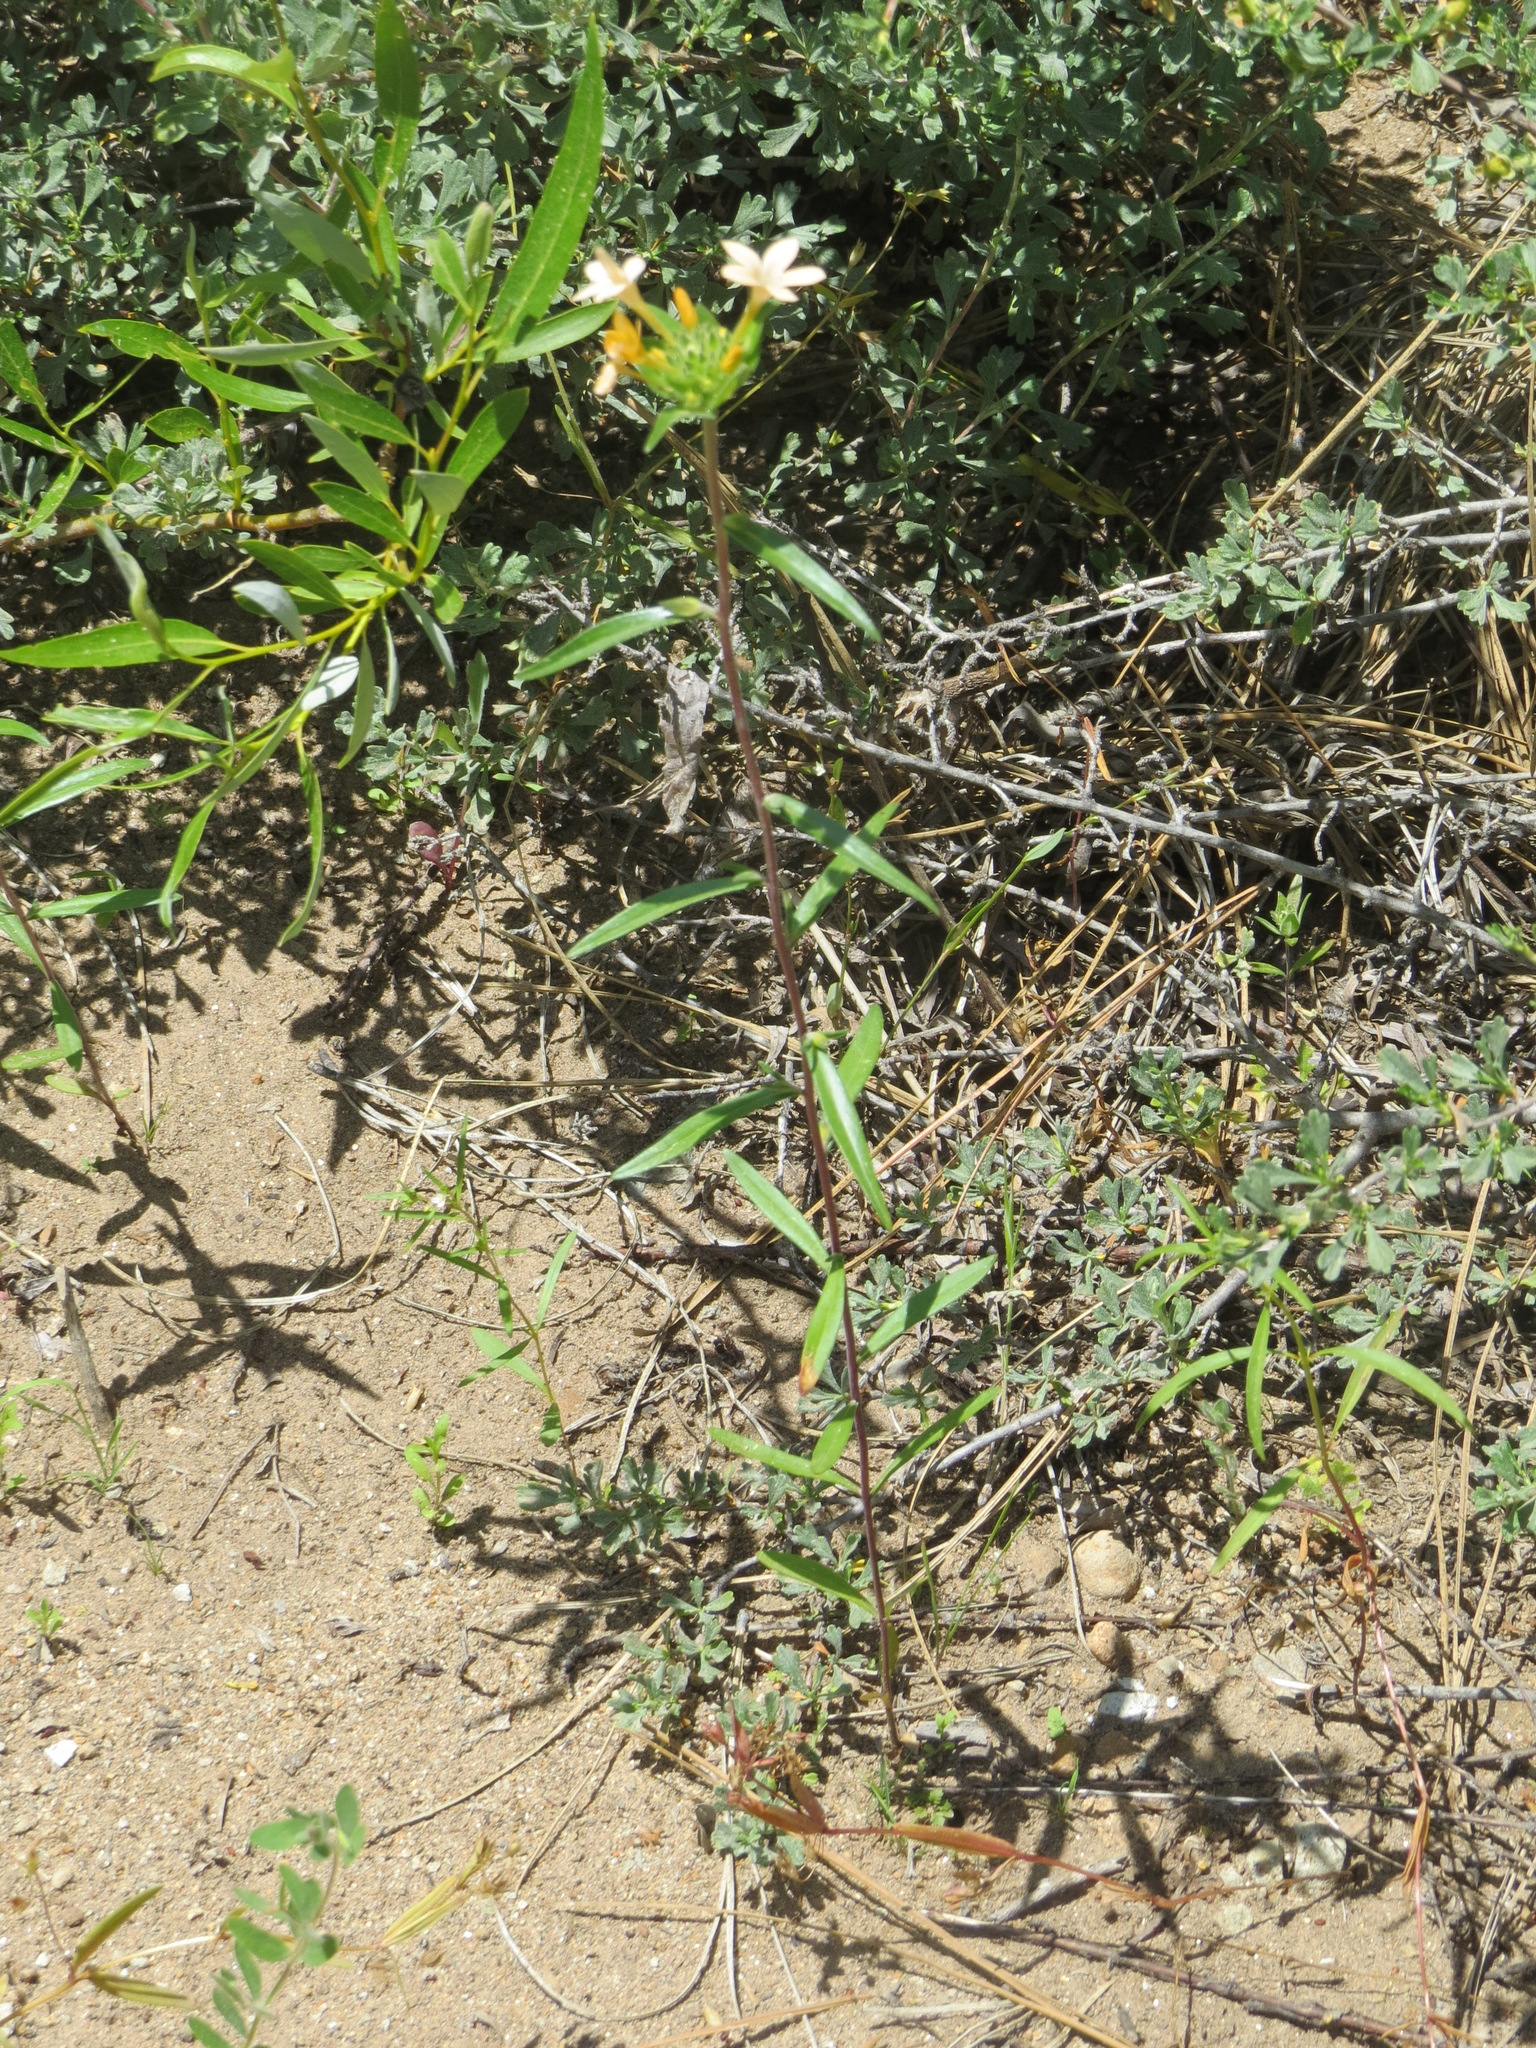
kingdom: Plantae
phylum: Tracheophyta
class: Magnoliopsida
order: Ericales
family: Polemoniaceae
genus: Collomia
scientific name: Collomia grandiflora
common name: California strawflower
